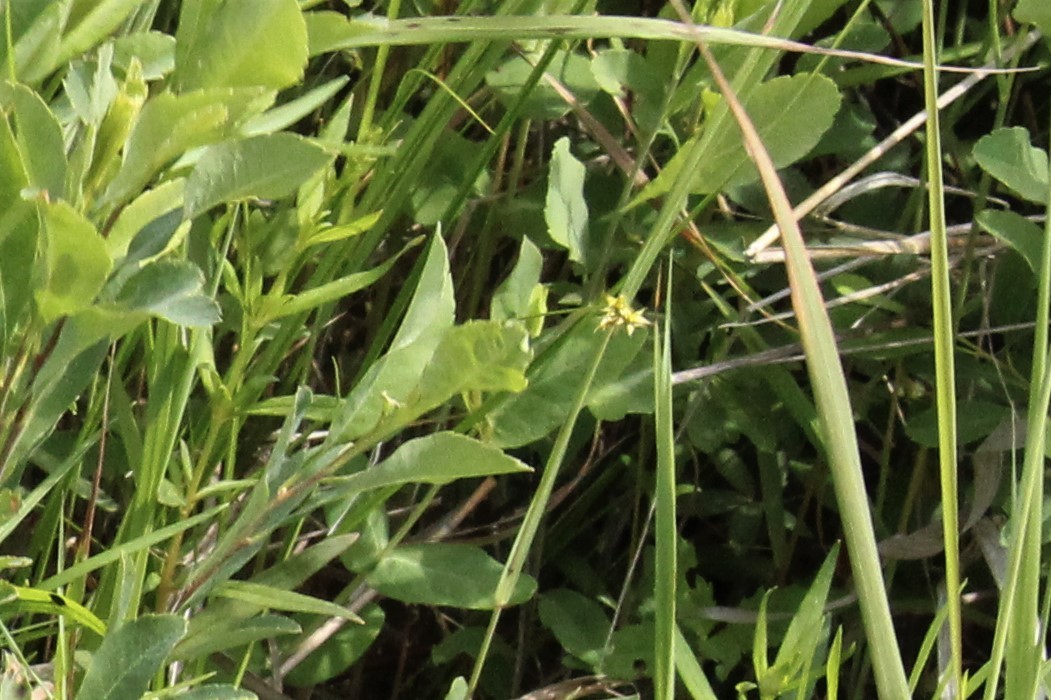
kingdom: Plantae
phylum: Tracheophyta
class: Liliopsida
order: Poales
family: Cyperaceae
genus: Carex
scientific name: Carex echinata
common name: Star sedge
